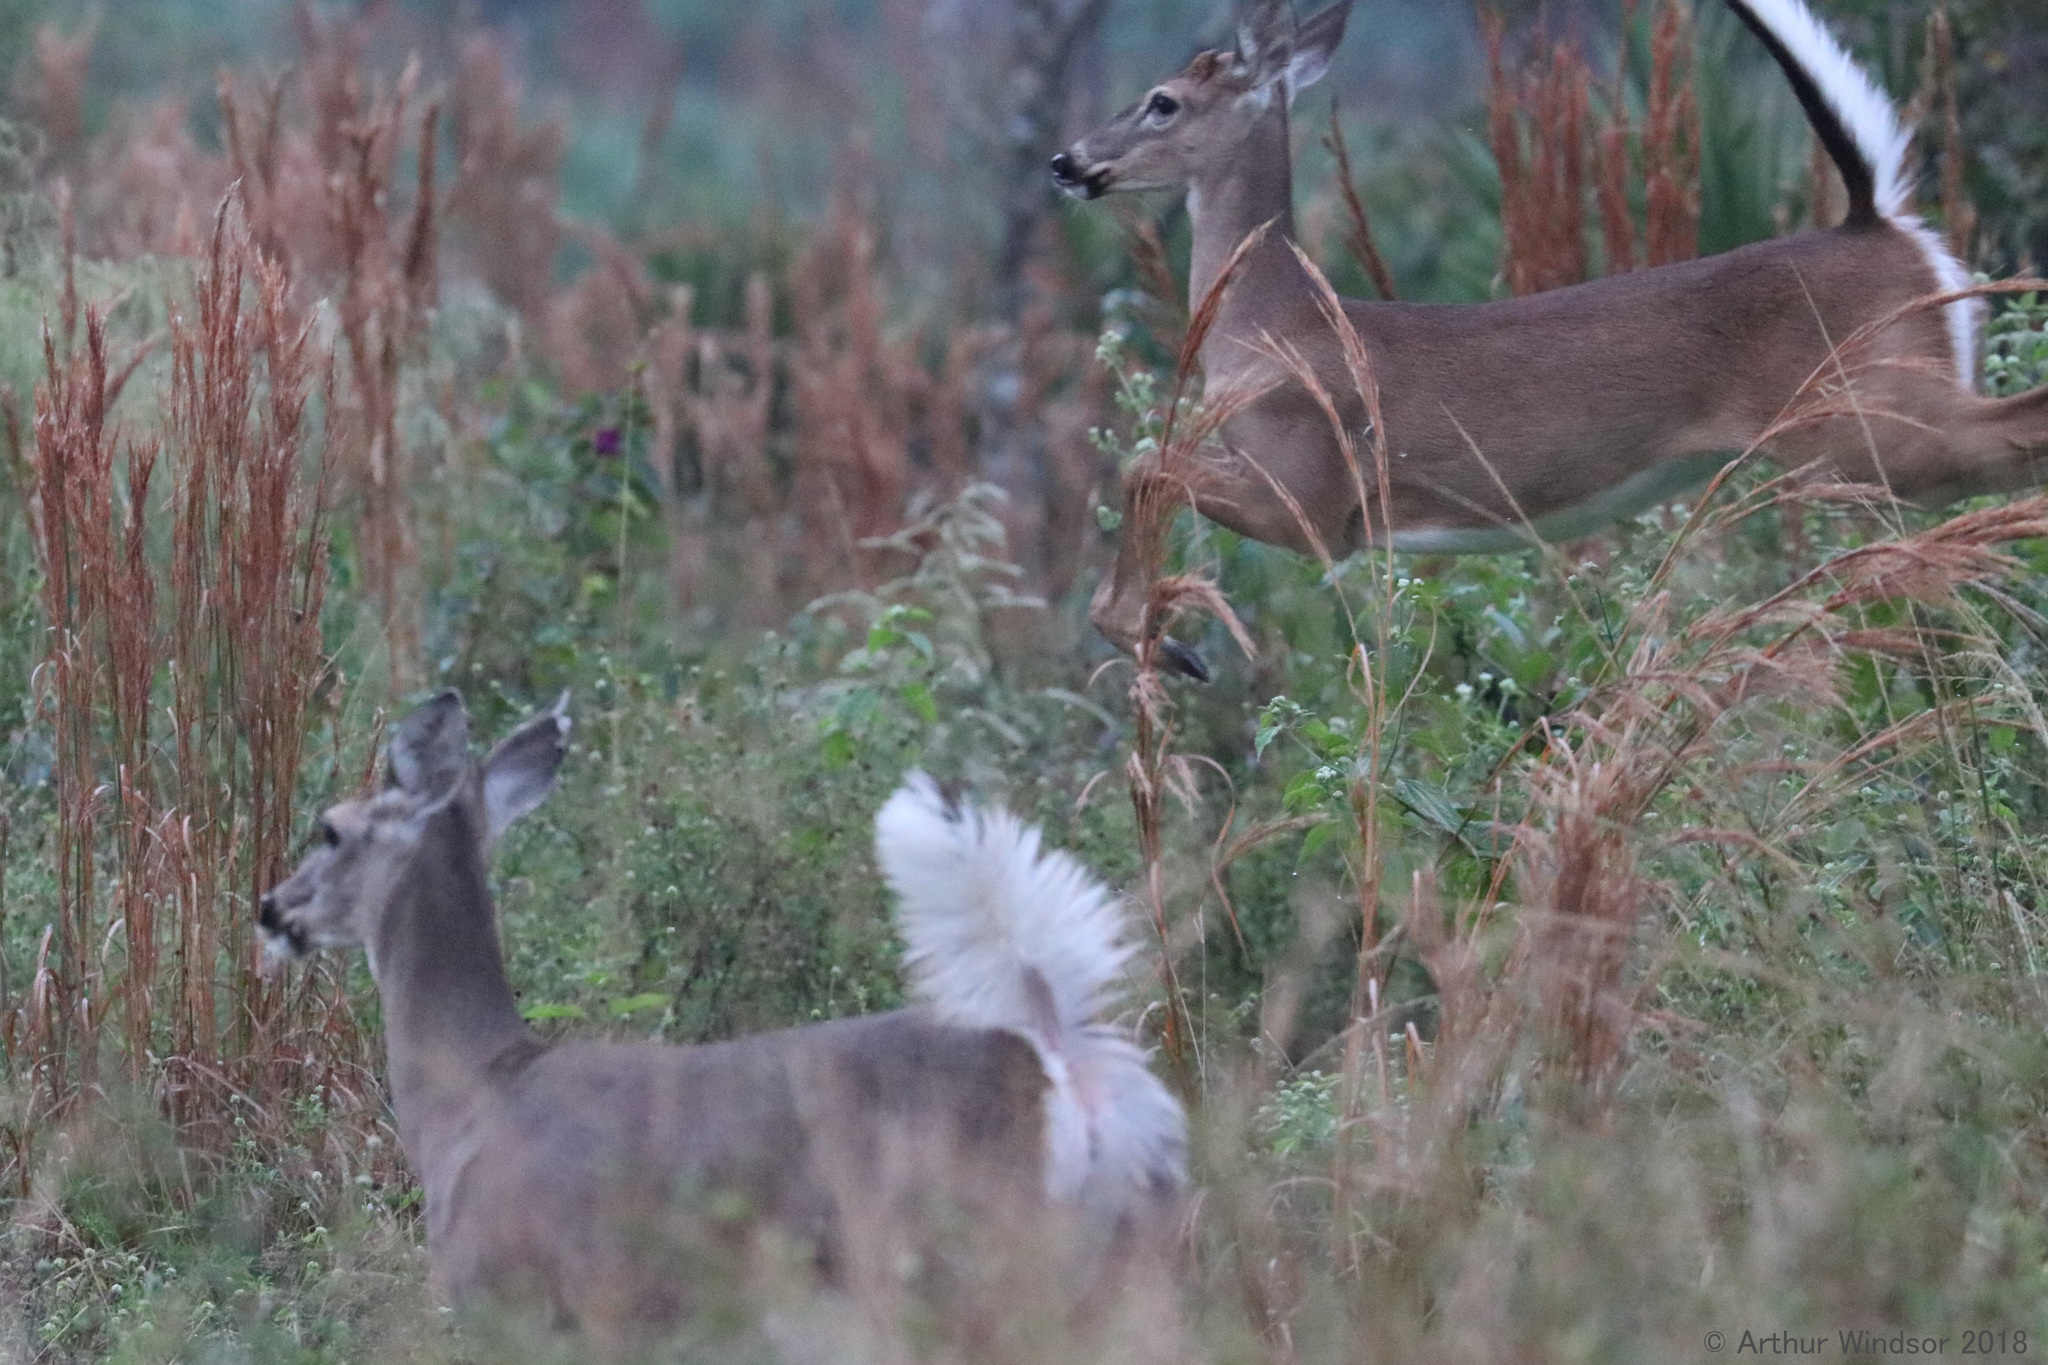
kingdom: Animalia
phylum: Chordata
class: Mammalia
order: Artiodactyla
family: Cervidae
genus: Odocoileus
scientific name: Odocoileus virginianus
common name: White-tailed deer
